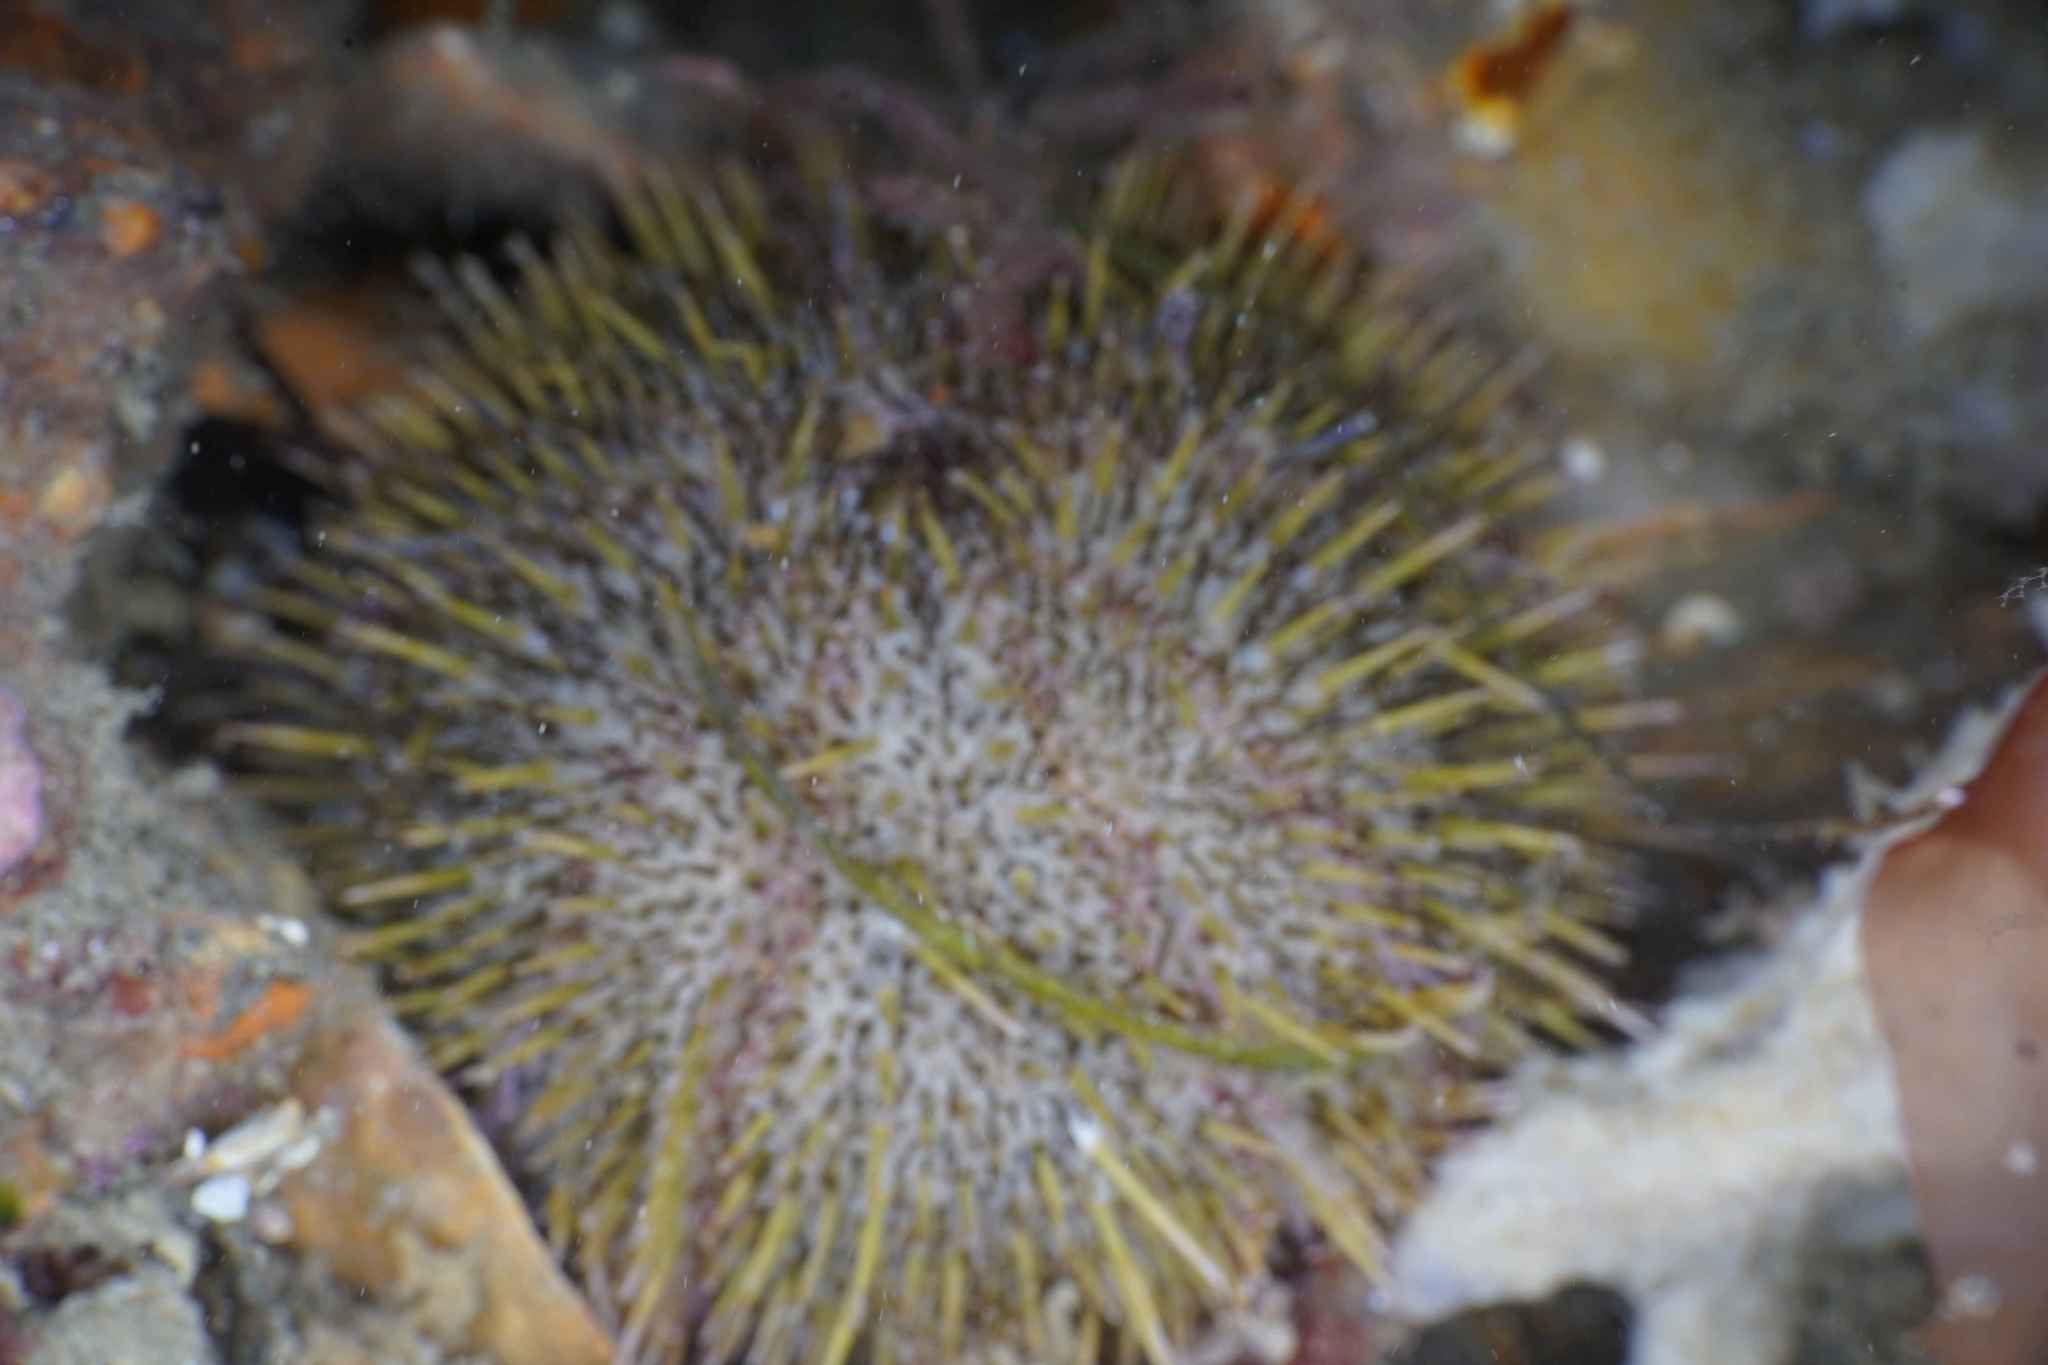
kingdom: Animalia
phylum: Echinodermata
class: Echinoidea
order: Camarodonta
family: Temnopleuridae
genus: Pseudechinus
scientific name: Pseudechinus novaezealandiae
